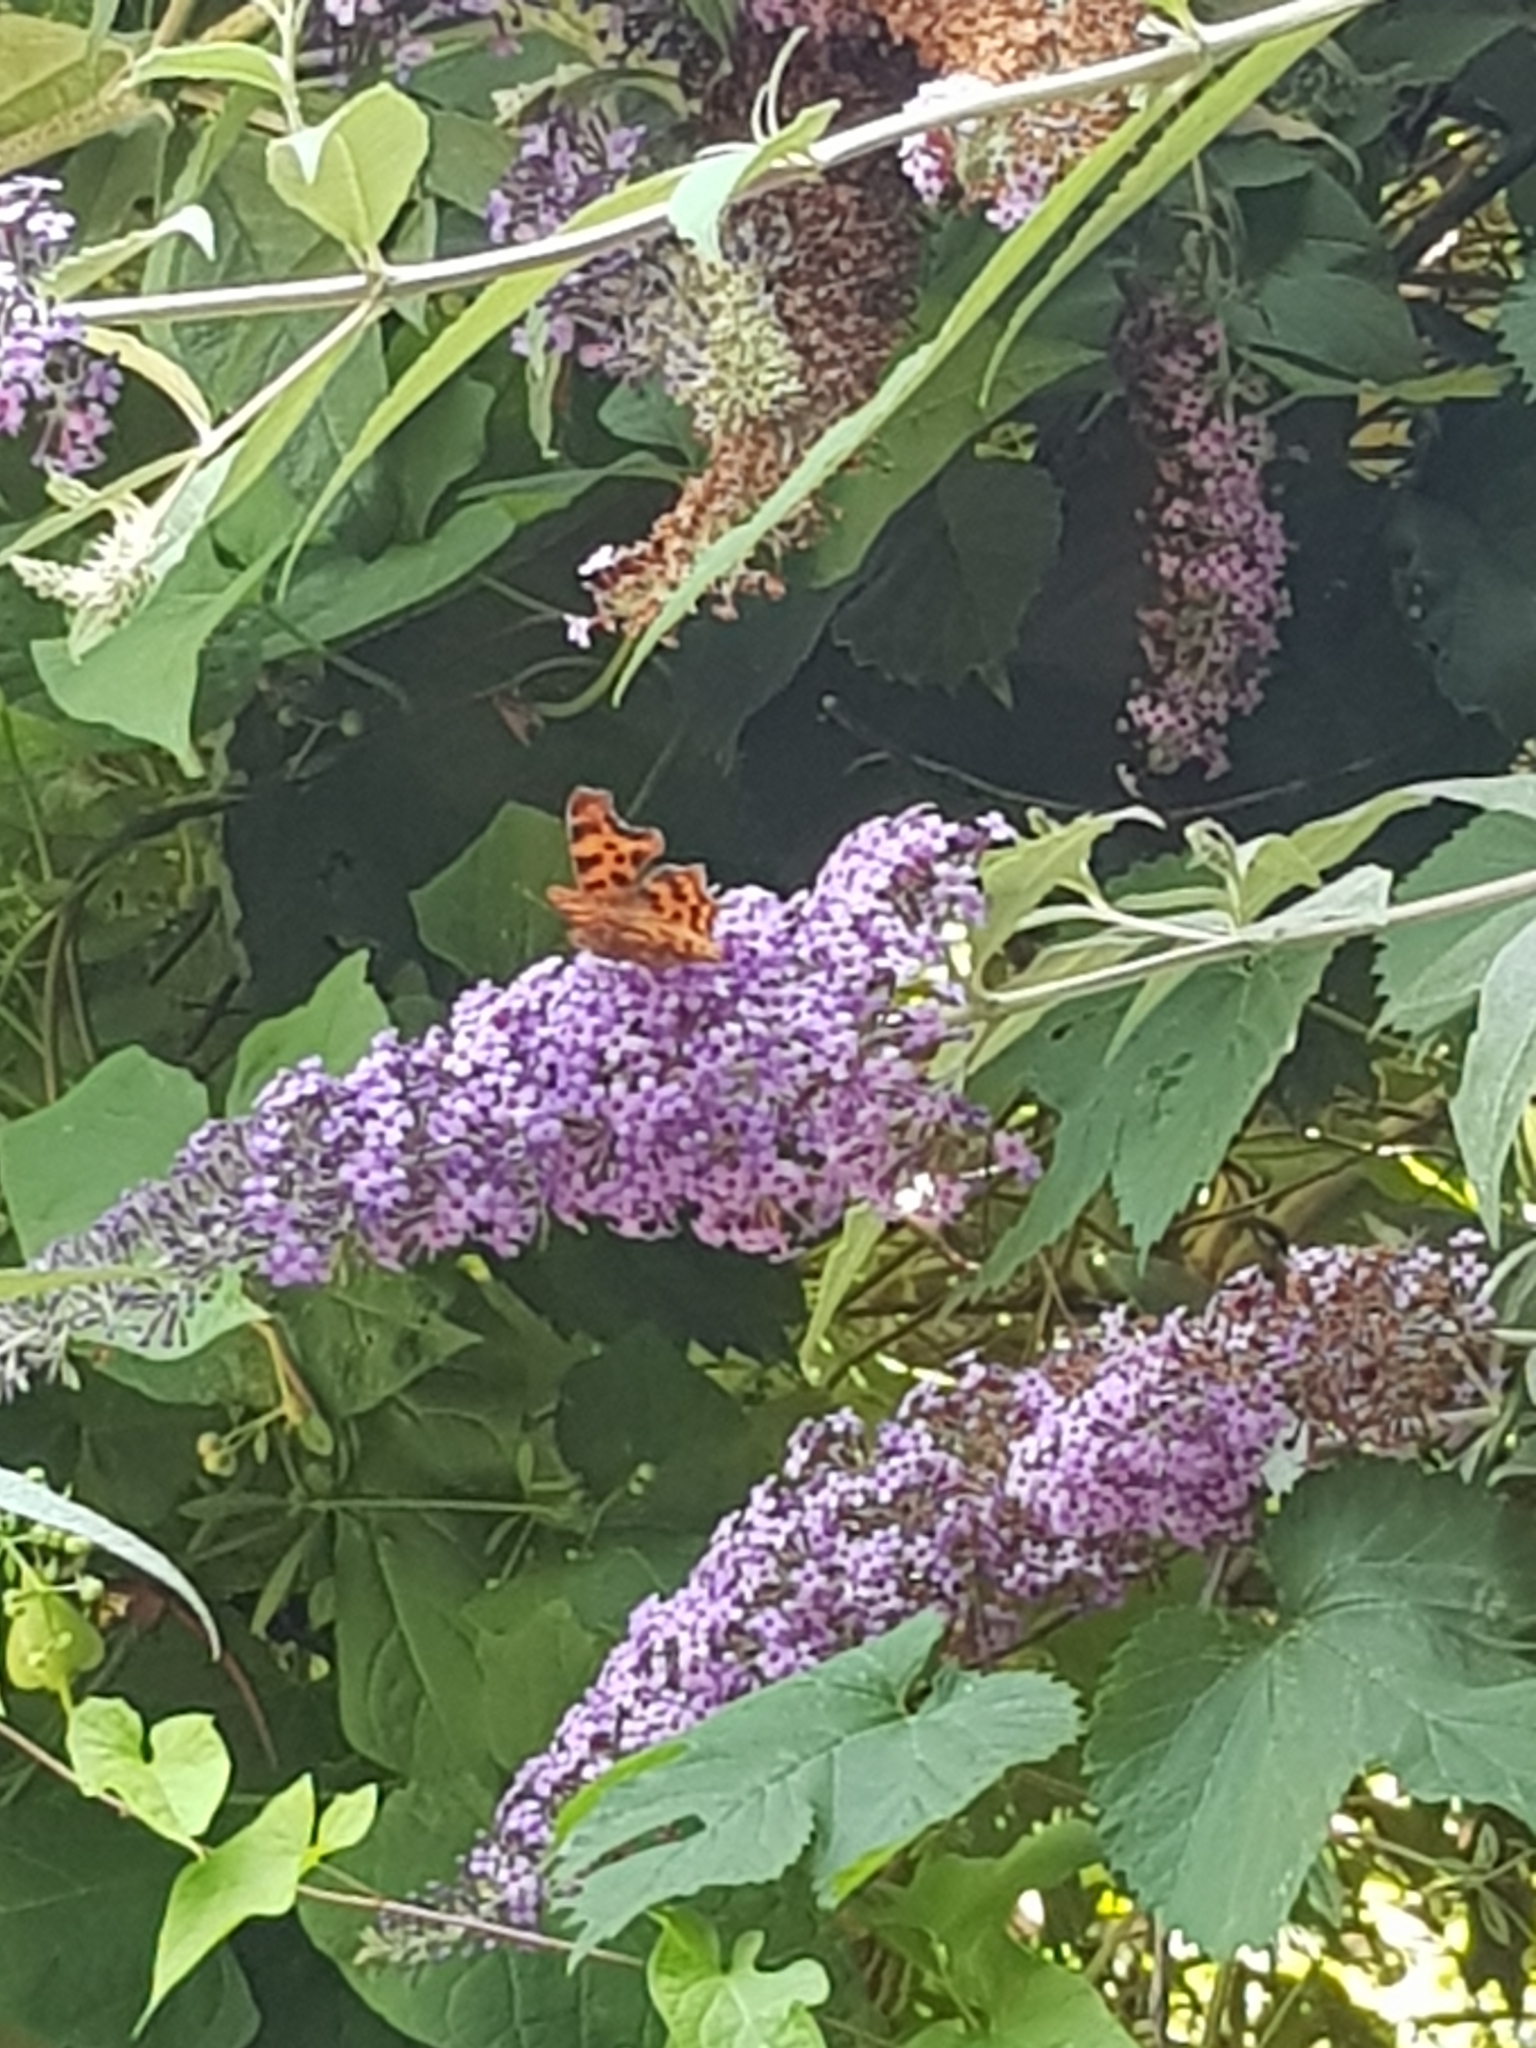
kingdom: Animalia
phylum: Arthropoda
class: Insecta
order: Lepidoptera
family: Nymphalidae
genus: Polygonia
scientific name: Polygonia c-album
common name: Comma
